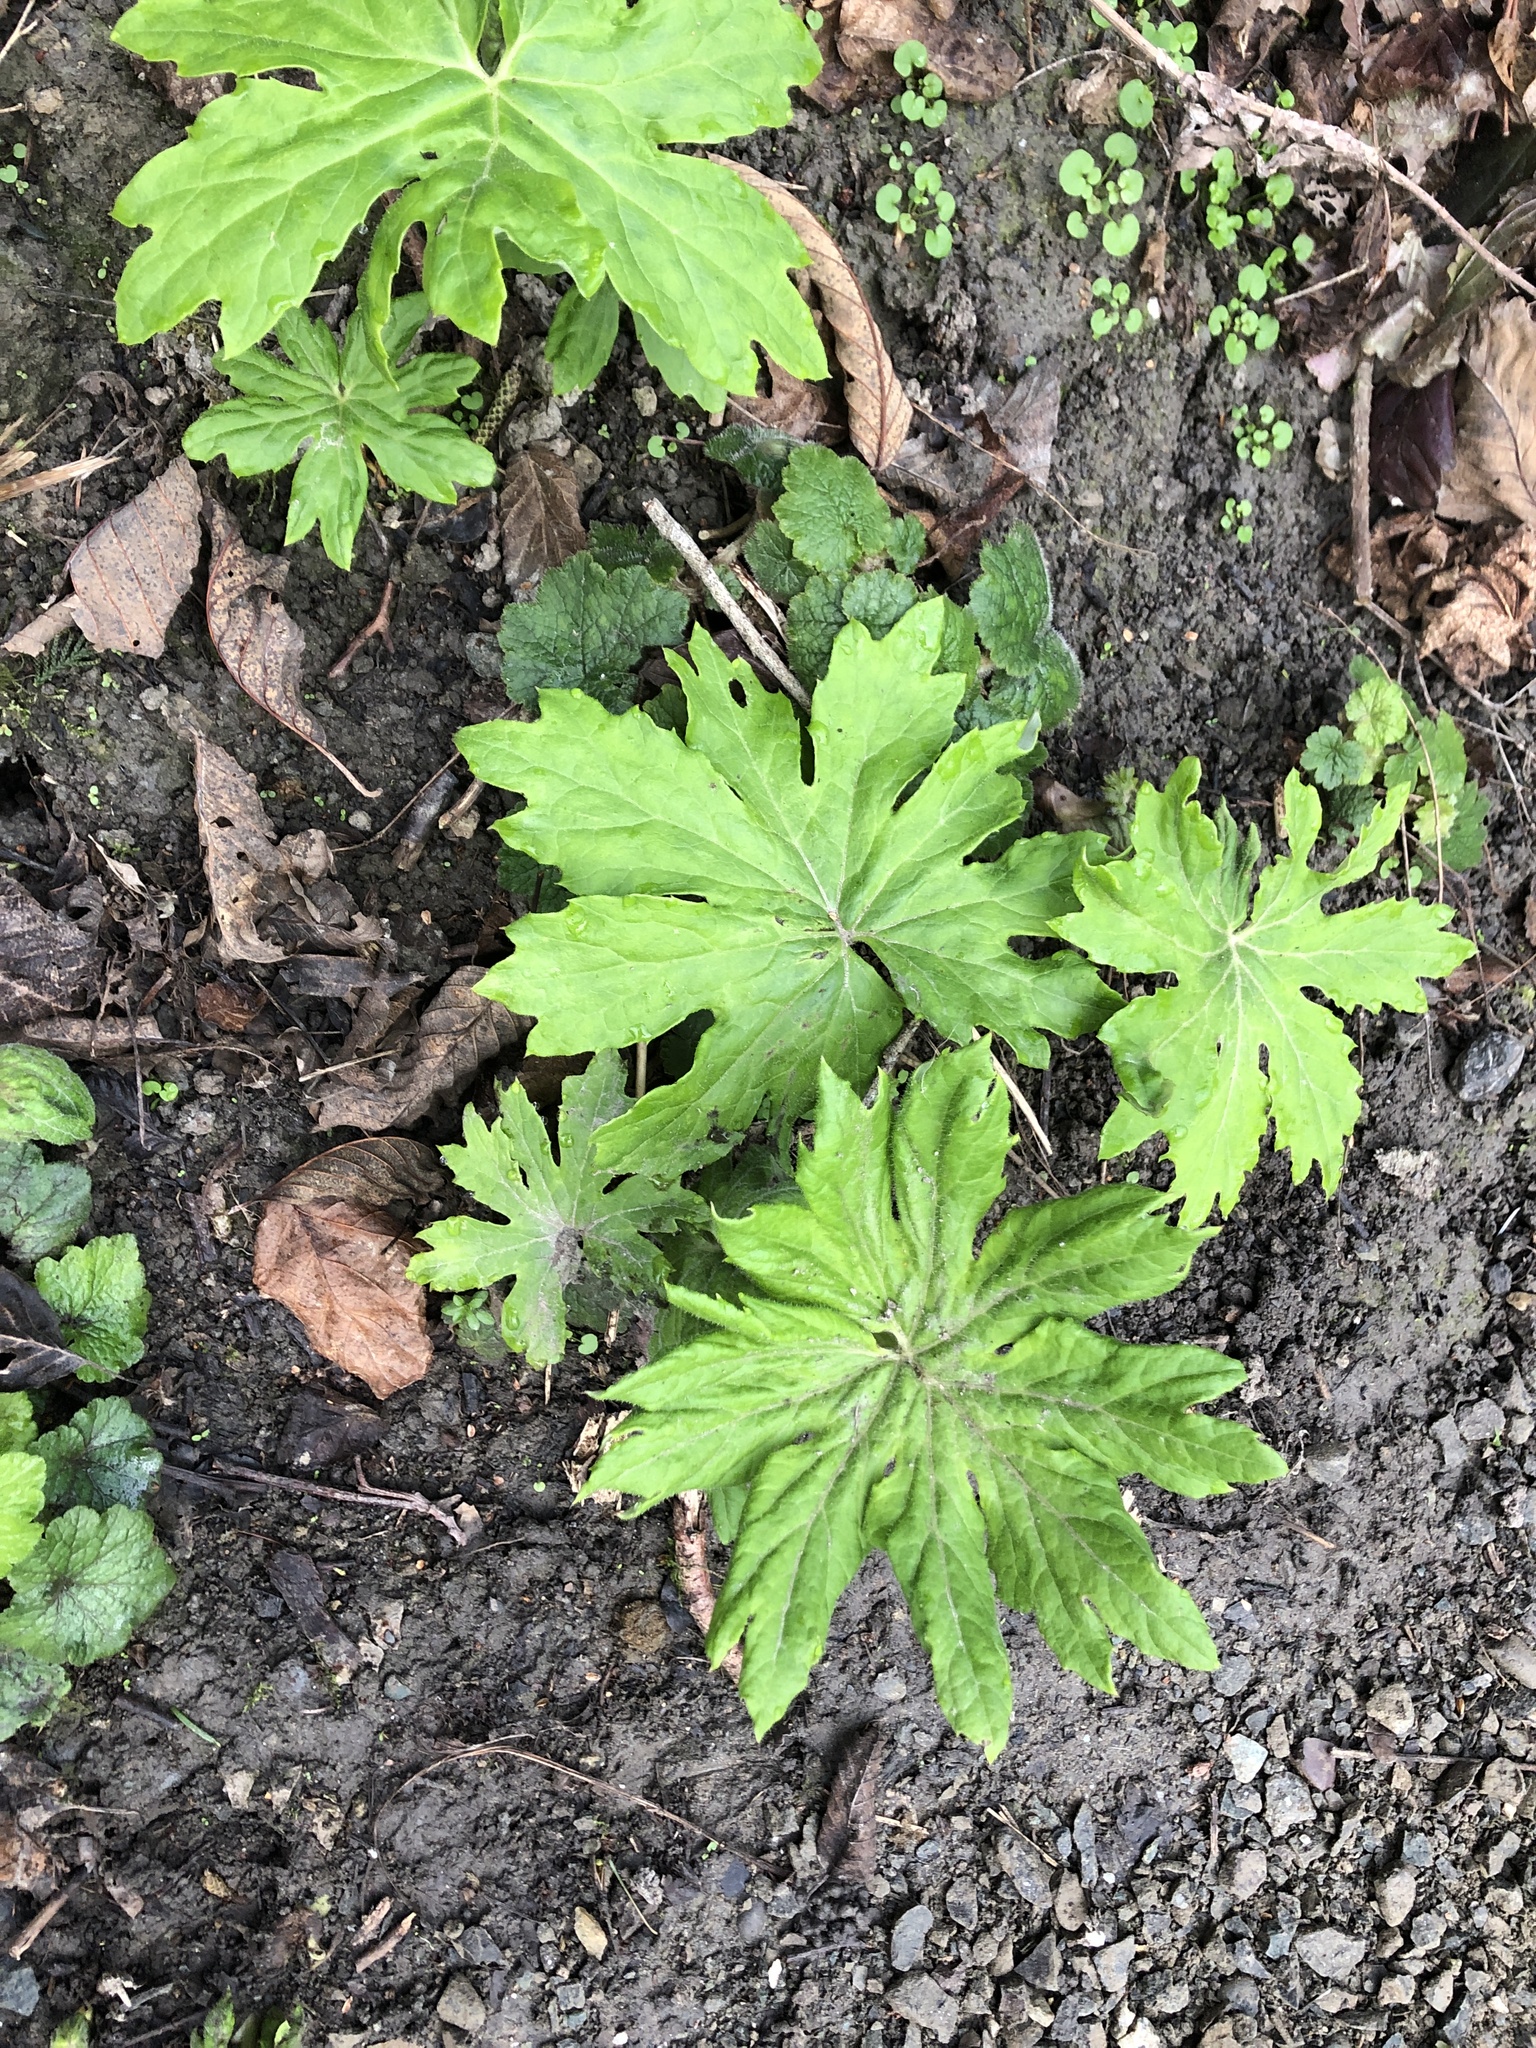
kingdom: Plantae
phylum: Tracheophyta
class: Magnoliopsida
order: Asterales
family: Asteraceae
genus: Petasites
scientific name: Petasites frigidus
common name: Arctic butterbur
